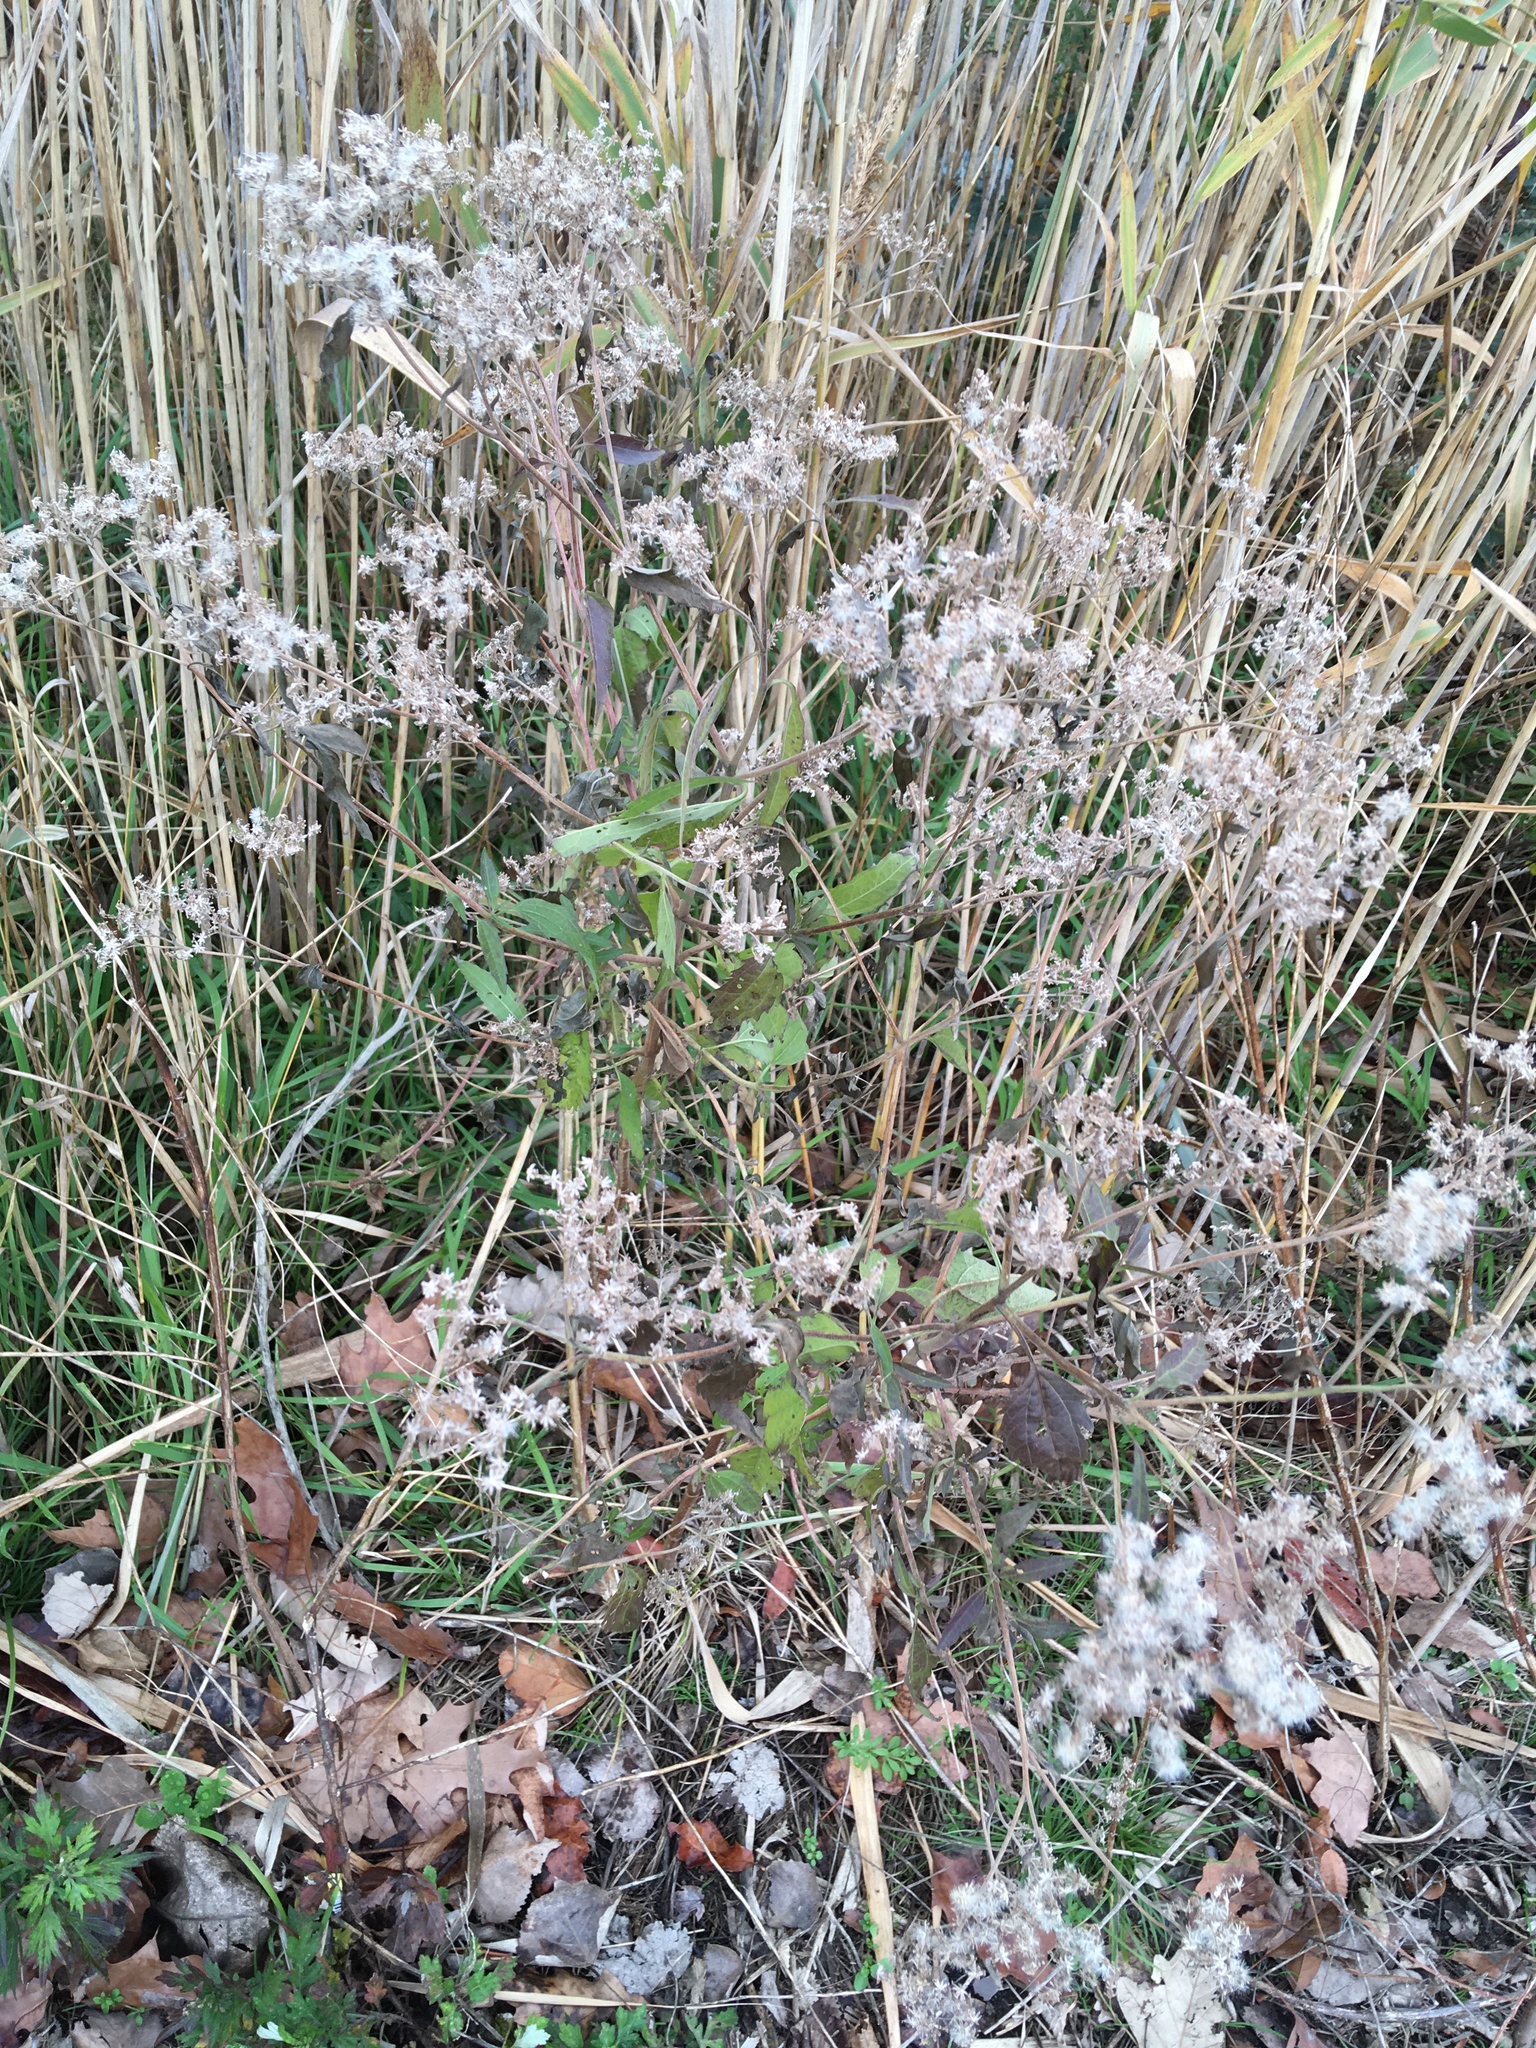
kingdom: Plantae
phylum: Tracheophyta
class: Magnoliopsida
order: Asterales
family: Asteraceae
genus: Ageratina
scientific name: Ageratina altissima
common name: White snakeroot
